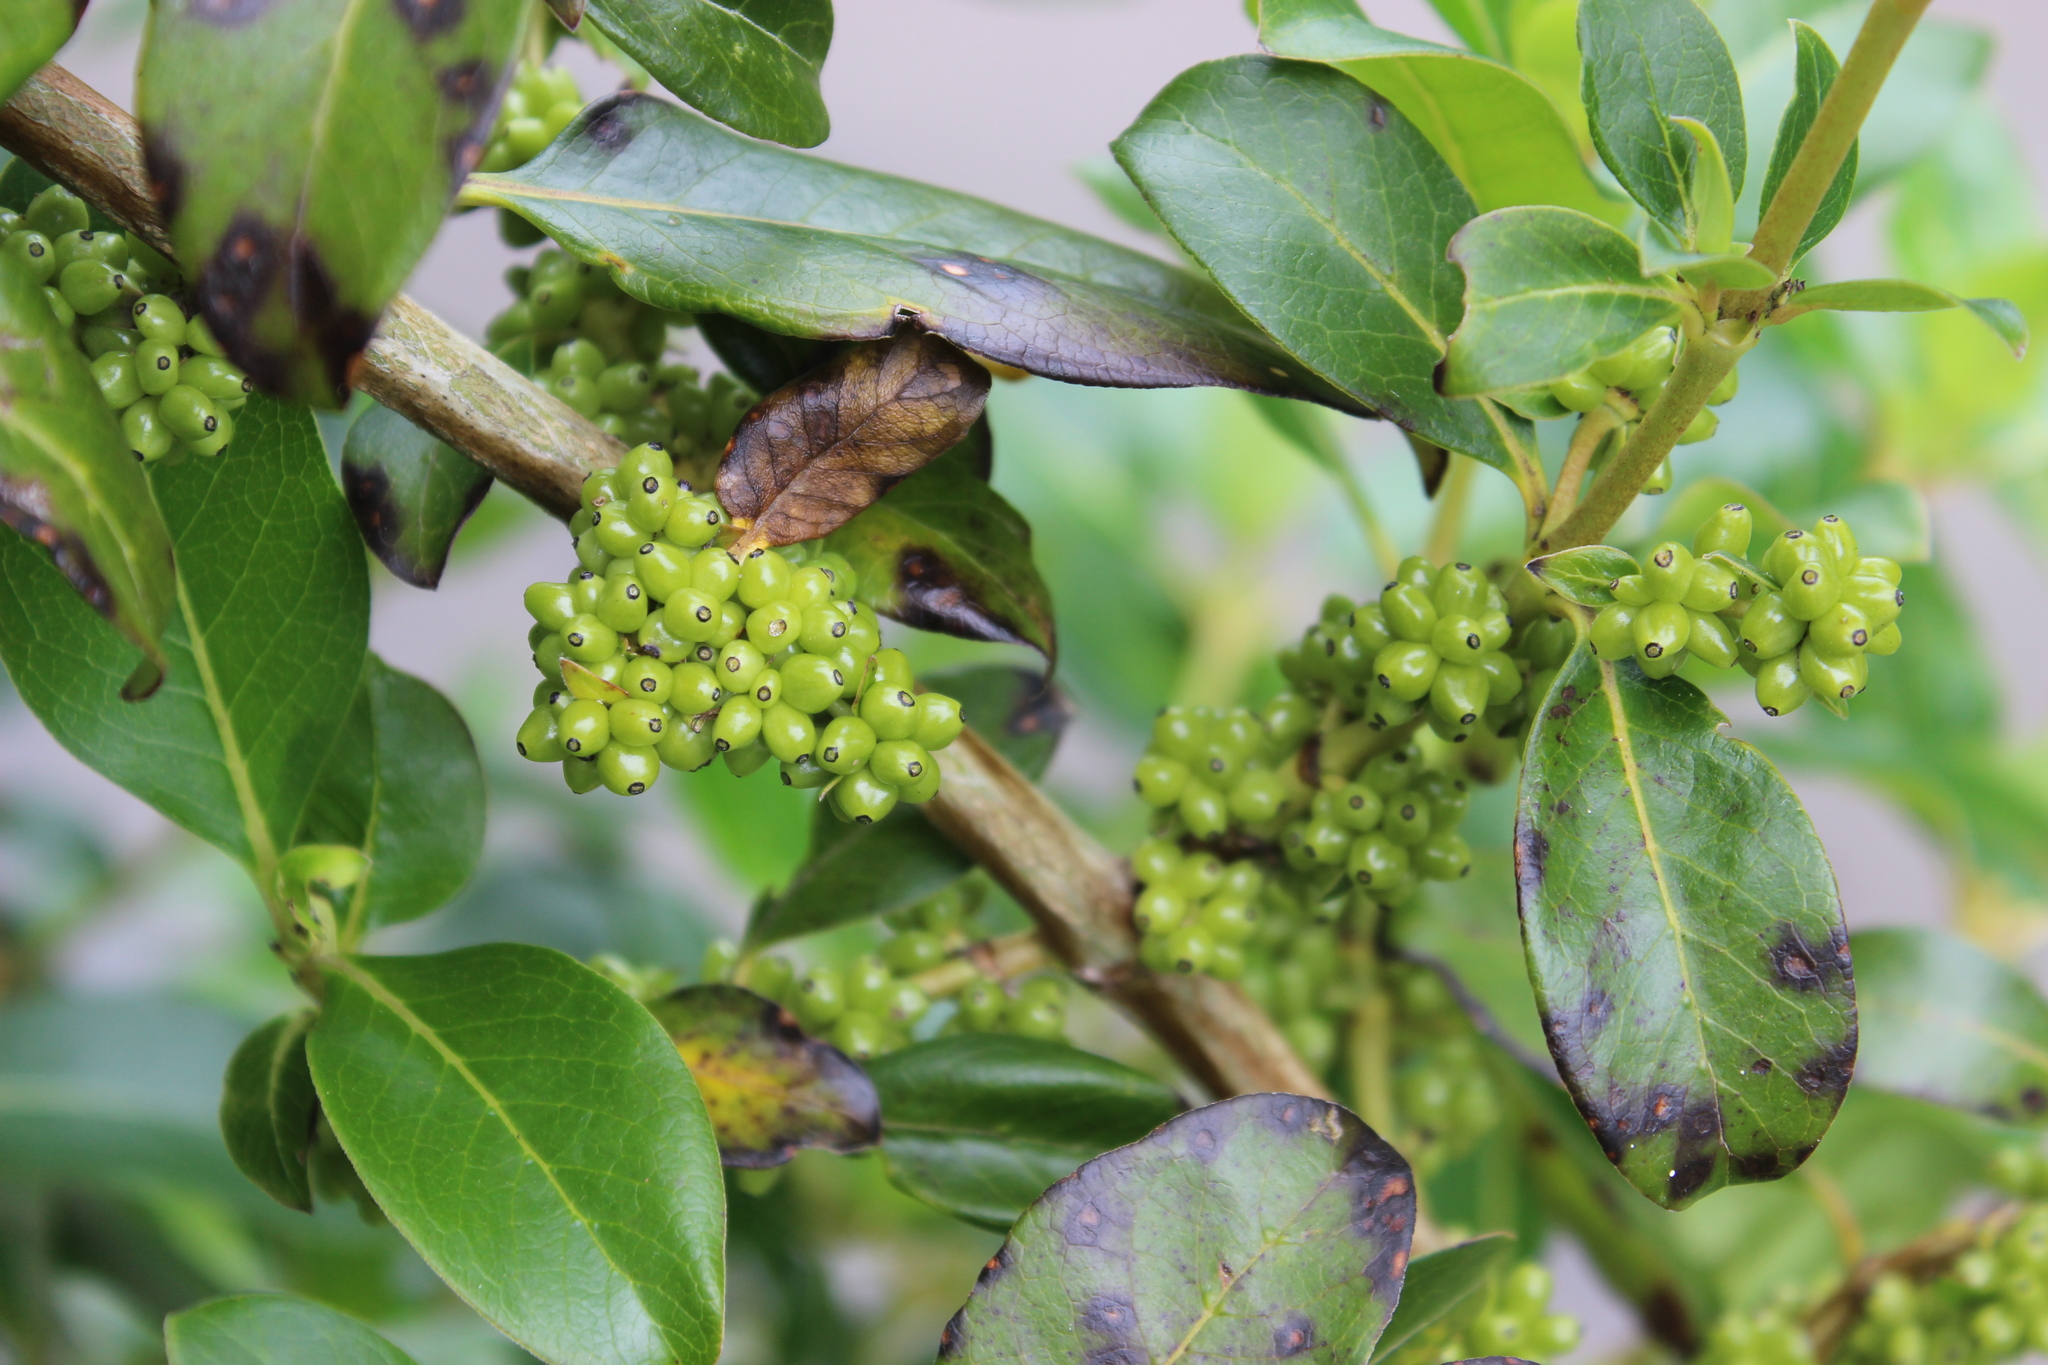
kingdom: Plantae
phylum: Tracheophyta
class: Magnoliopsida
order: Gentianales
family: Rubiaceae
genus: Coprosma
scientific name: Coprosma robusta
